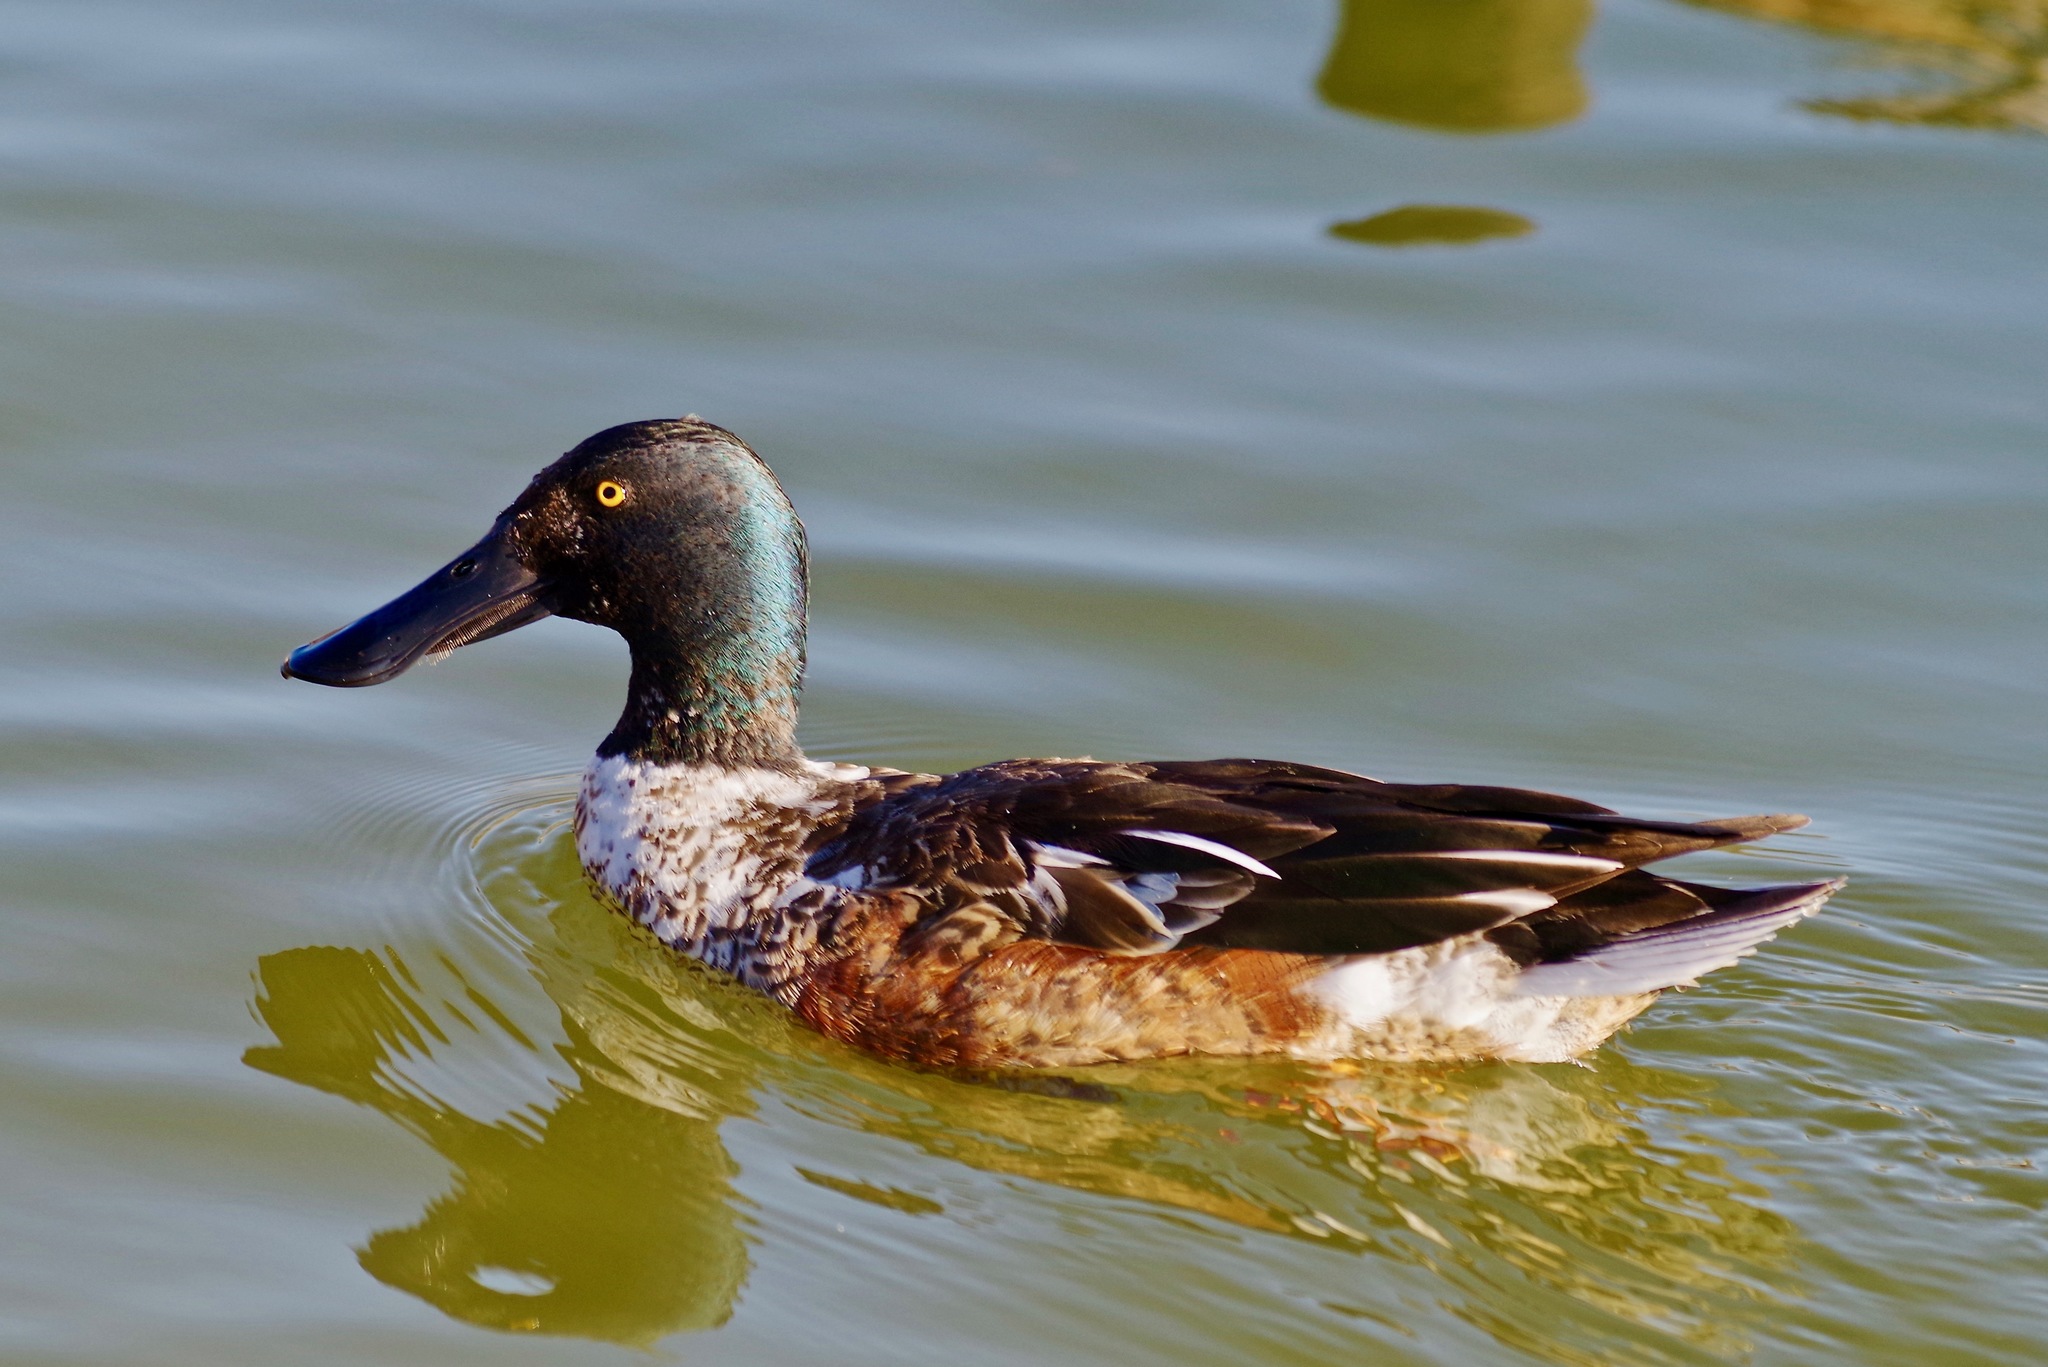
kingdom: Animalia
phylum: Chordata
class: Aves
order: Anseriformes
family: Anatidae
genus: Spatula
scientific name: Spatula clypeata
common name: Northern shoveler
